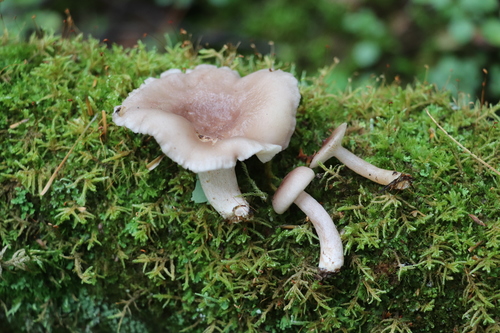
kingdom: Fungi
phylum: Basidiomycota
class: Agaricomycetes
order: Russulales
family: Russulaceae
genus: Lactarius
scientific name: Lactarius uvidus
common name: Shiner milkcap
